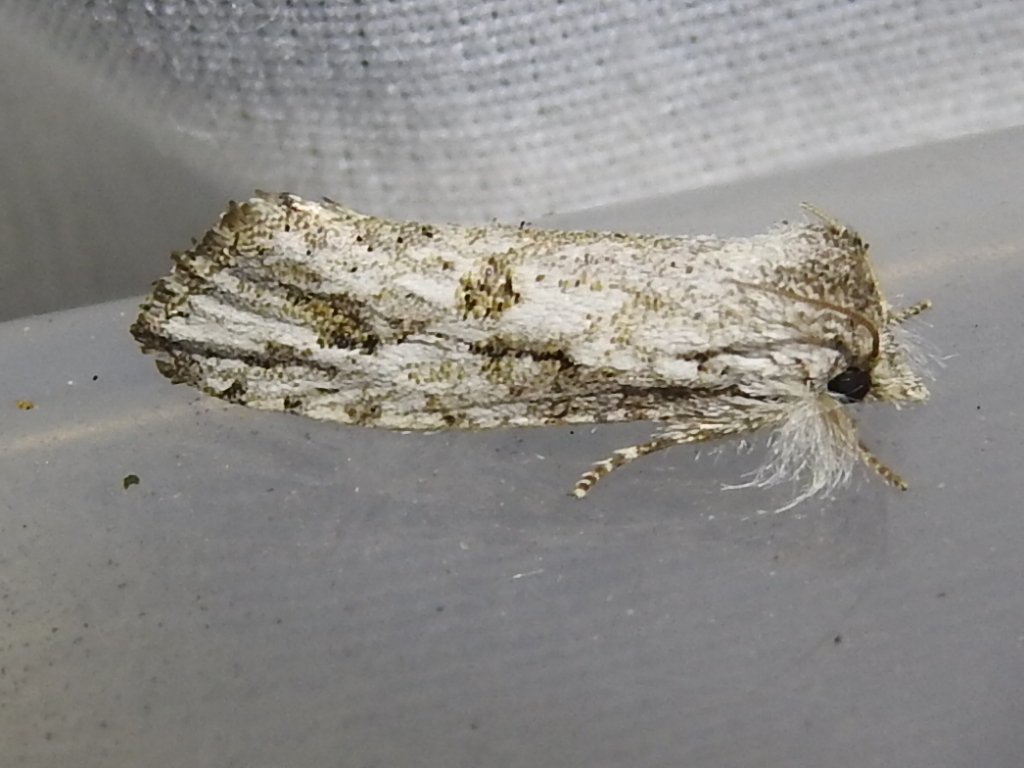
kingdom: Animalia
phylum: Arthropoda
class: Insecta
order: Lepidoptera
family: Tineidae
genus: Acrolophus
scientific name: Acrolophus griseus
